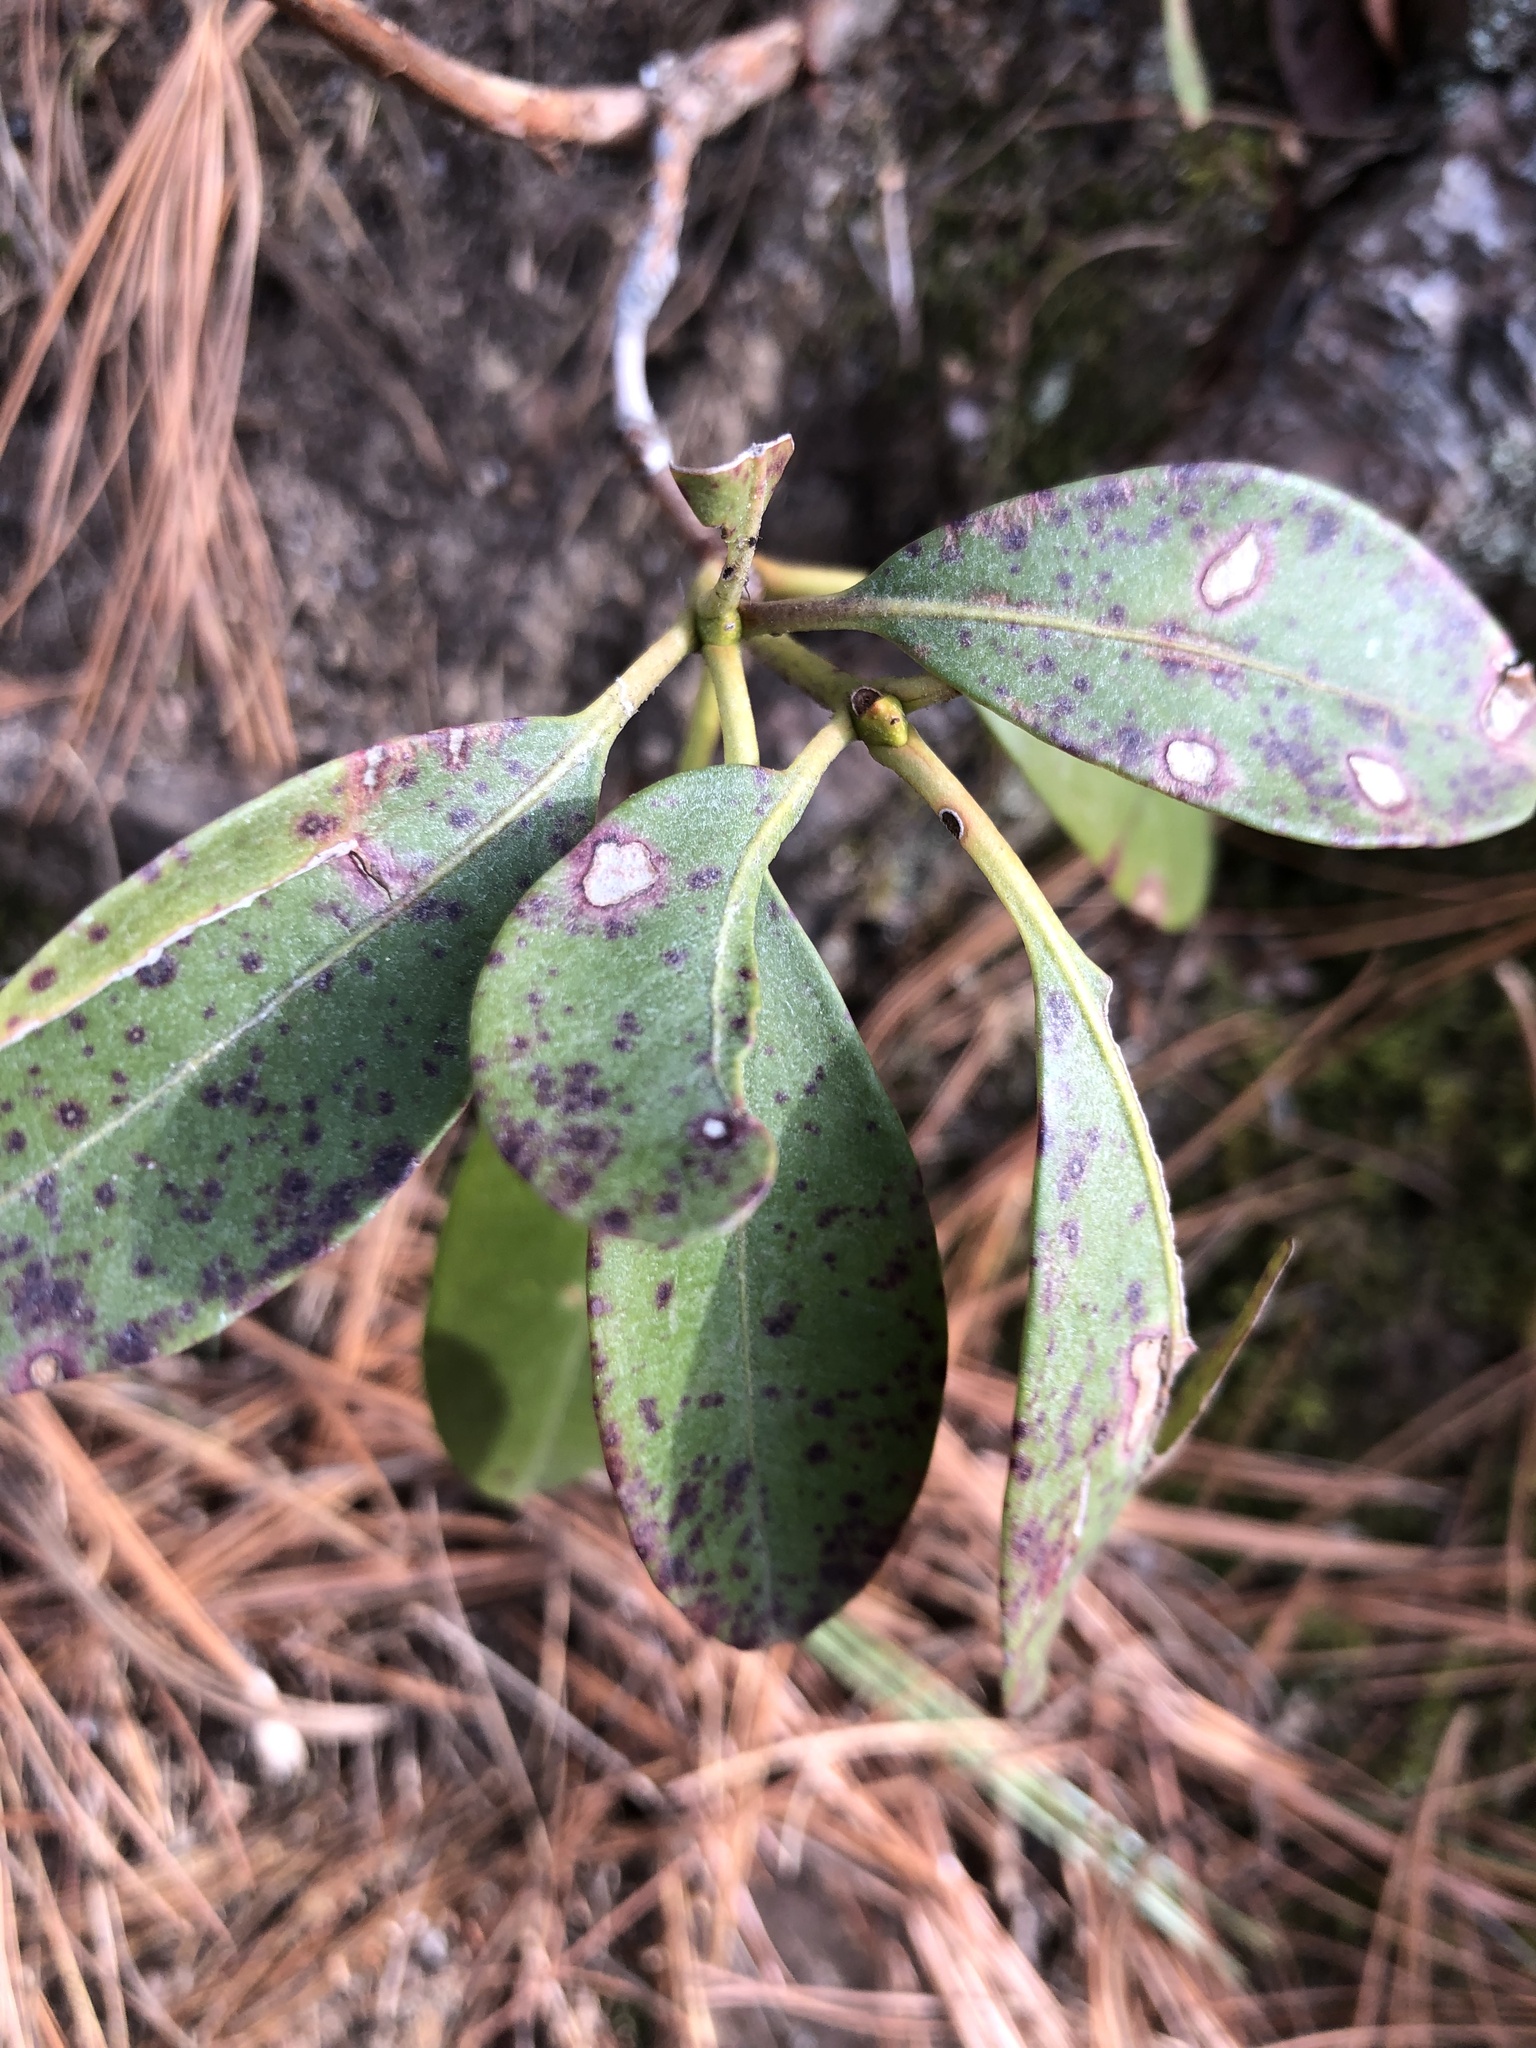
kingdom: Fungi
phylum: Ascomycota
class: Dothideomycetes
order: Mycosphaerellales
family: Mycosphaerellaceae
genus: Mycosphaerella
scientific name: Mycosphaerella colorata
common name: Mountain laurel leaf spot
